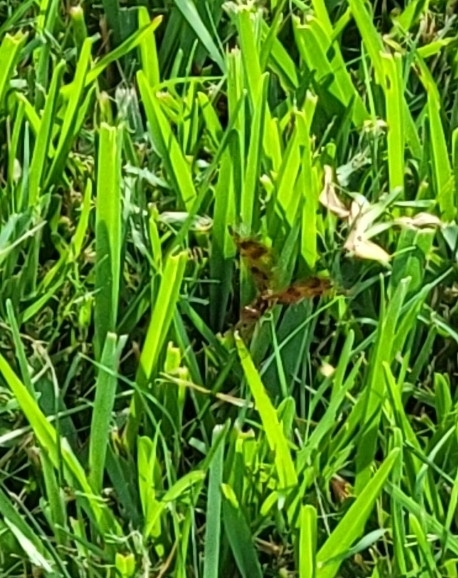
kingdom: Animalia
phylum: Arthropoda
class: Insecta
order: Odonata
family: Libellulidae
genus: Perithemis
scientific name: Perithemis tenera
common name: Eastern amberwing
